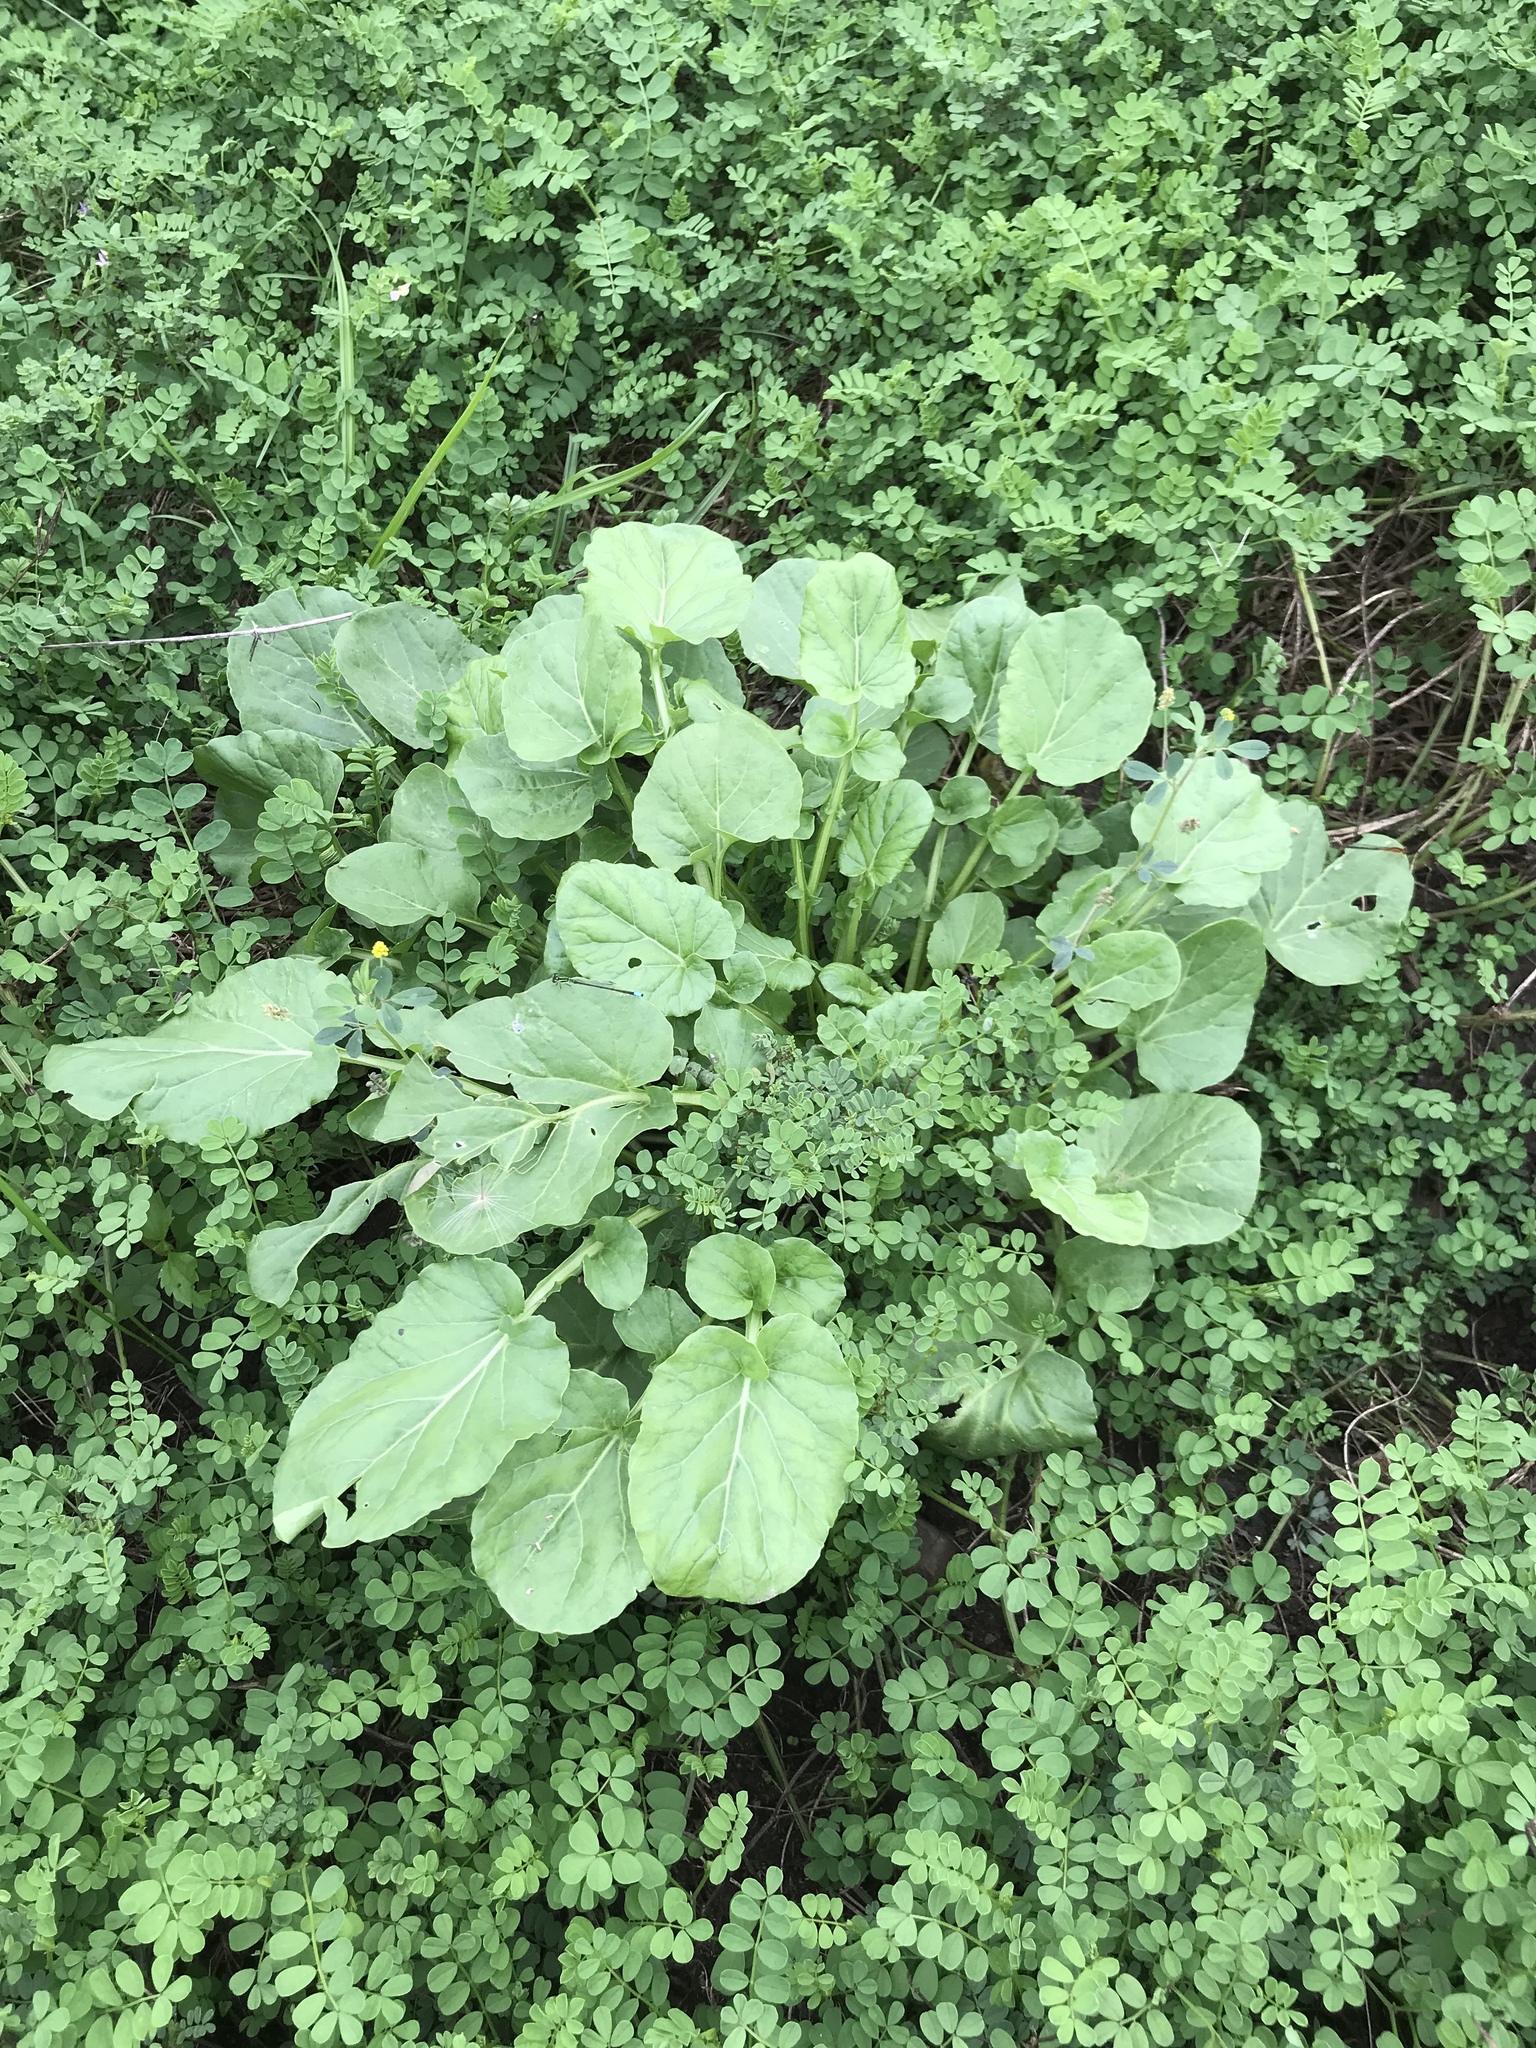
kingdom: Plantae
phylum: Tracheophyta
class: Magnoliopsida
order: Brassicales
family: Brassicaceae
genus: Barbarea
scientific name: Barbarea vulgaris
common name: Cressy-greens
